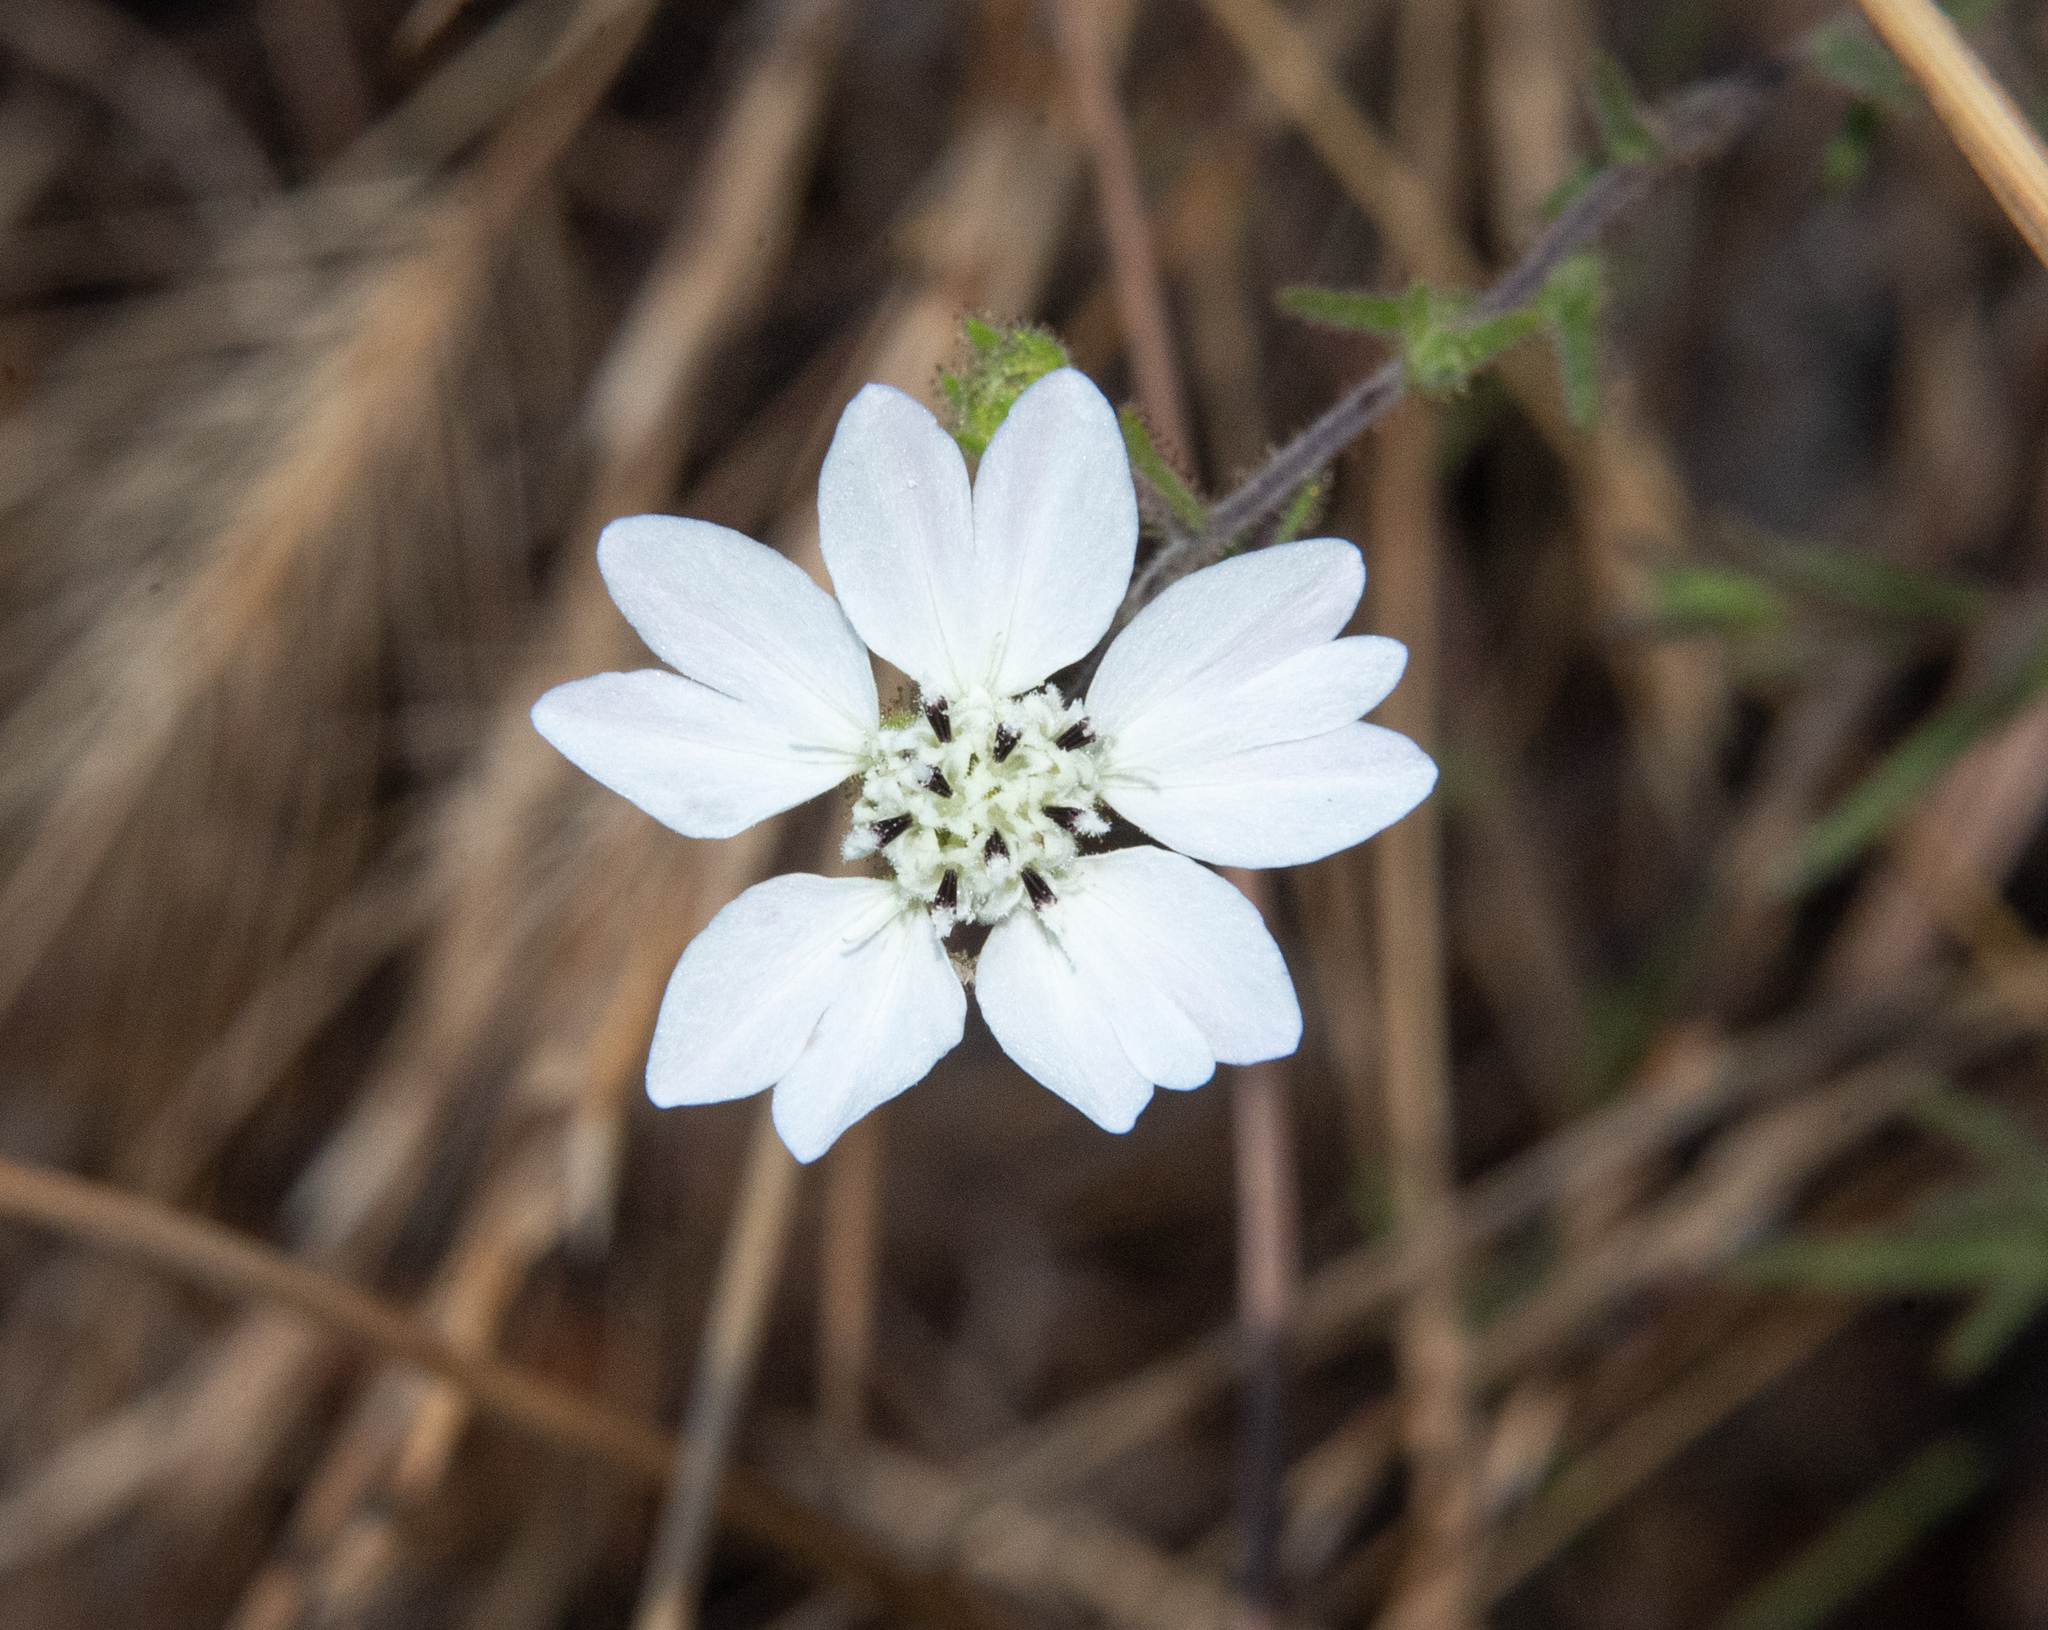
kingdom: Plantae
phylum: Tracheophyta
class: Magnoliopsida
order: Asterales
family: Asteraceae
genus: Hemizonia
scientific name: Hemizonia congesta
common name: Hayfield tarweed
